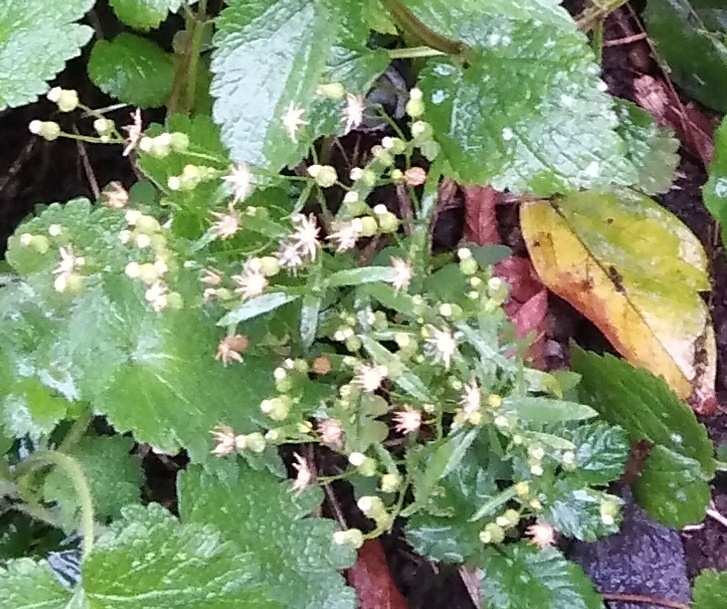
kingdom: Plantae
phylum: Tracheophyta
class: Magnoliopsida
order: Asterales
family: Asteraceae
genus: Erigeron
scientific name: Erigeron canadensis
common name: Canadian fleabane
